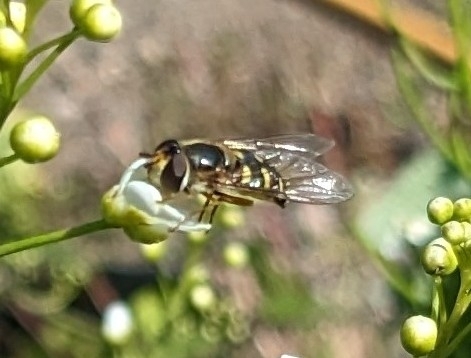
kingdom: Animalia
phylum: Arthropoda
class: Insecta
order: Diptera
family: Syrphidae
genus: Eupeodes
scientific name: Eupeodes luniger
